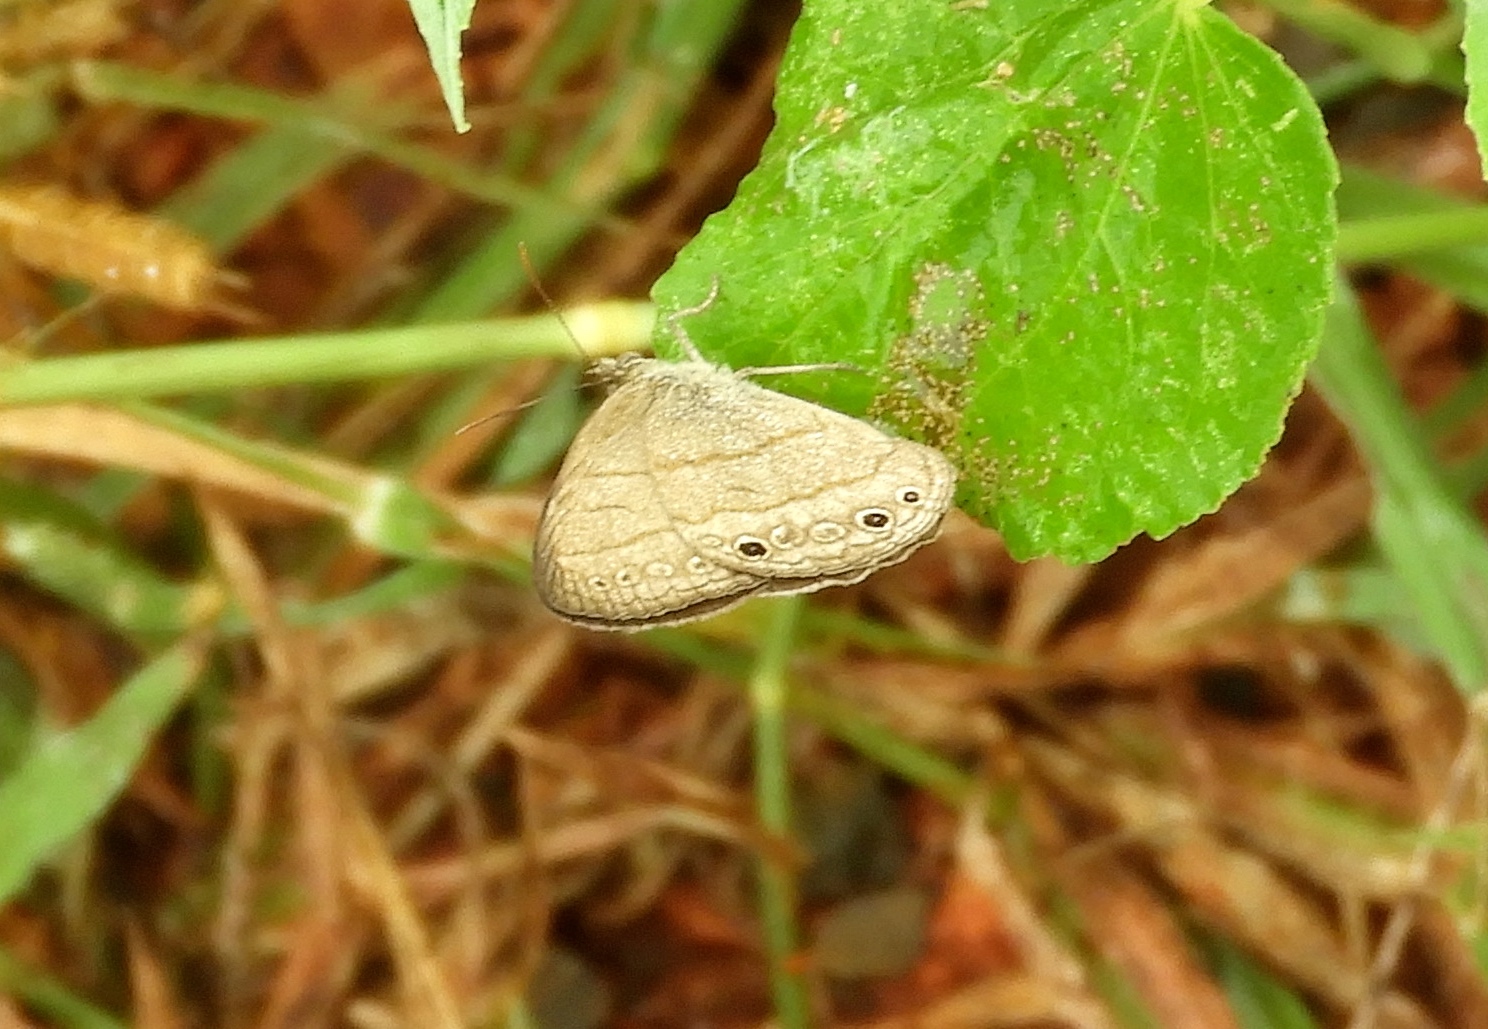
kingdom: Animalia
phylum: Arthropoda
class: Insecta
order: Lepidoptera
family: Nymphalidae
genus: Hermeuptychia
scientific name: Hermeuptychia hermes
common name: Hermes satyr
